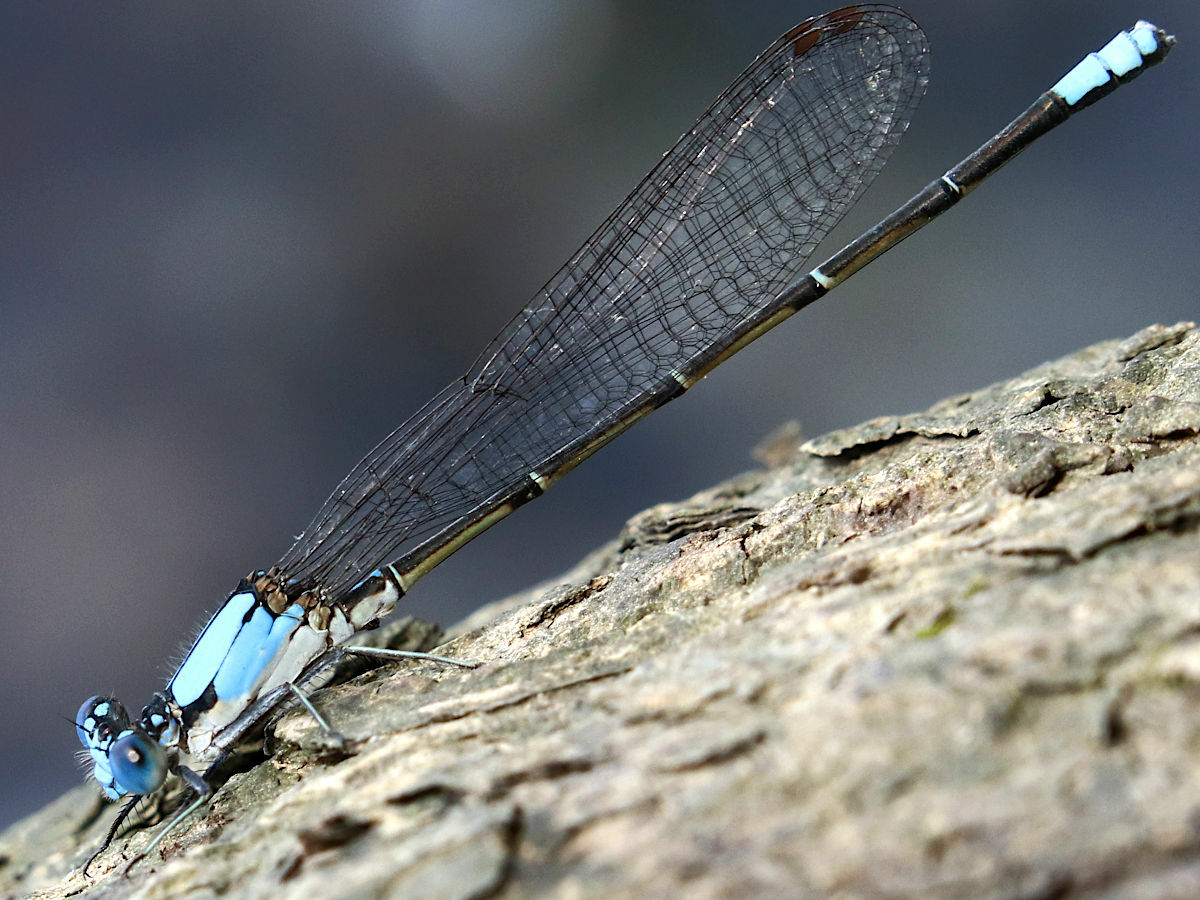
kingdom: Animalia
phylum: Arthropoda
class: Insecta
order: Odonata
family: Coenagrionidae
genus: Argia
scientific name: Argia apicalis
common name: Blue-fronted dancer
